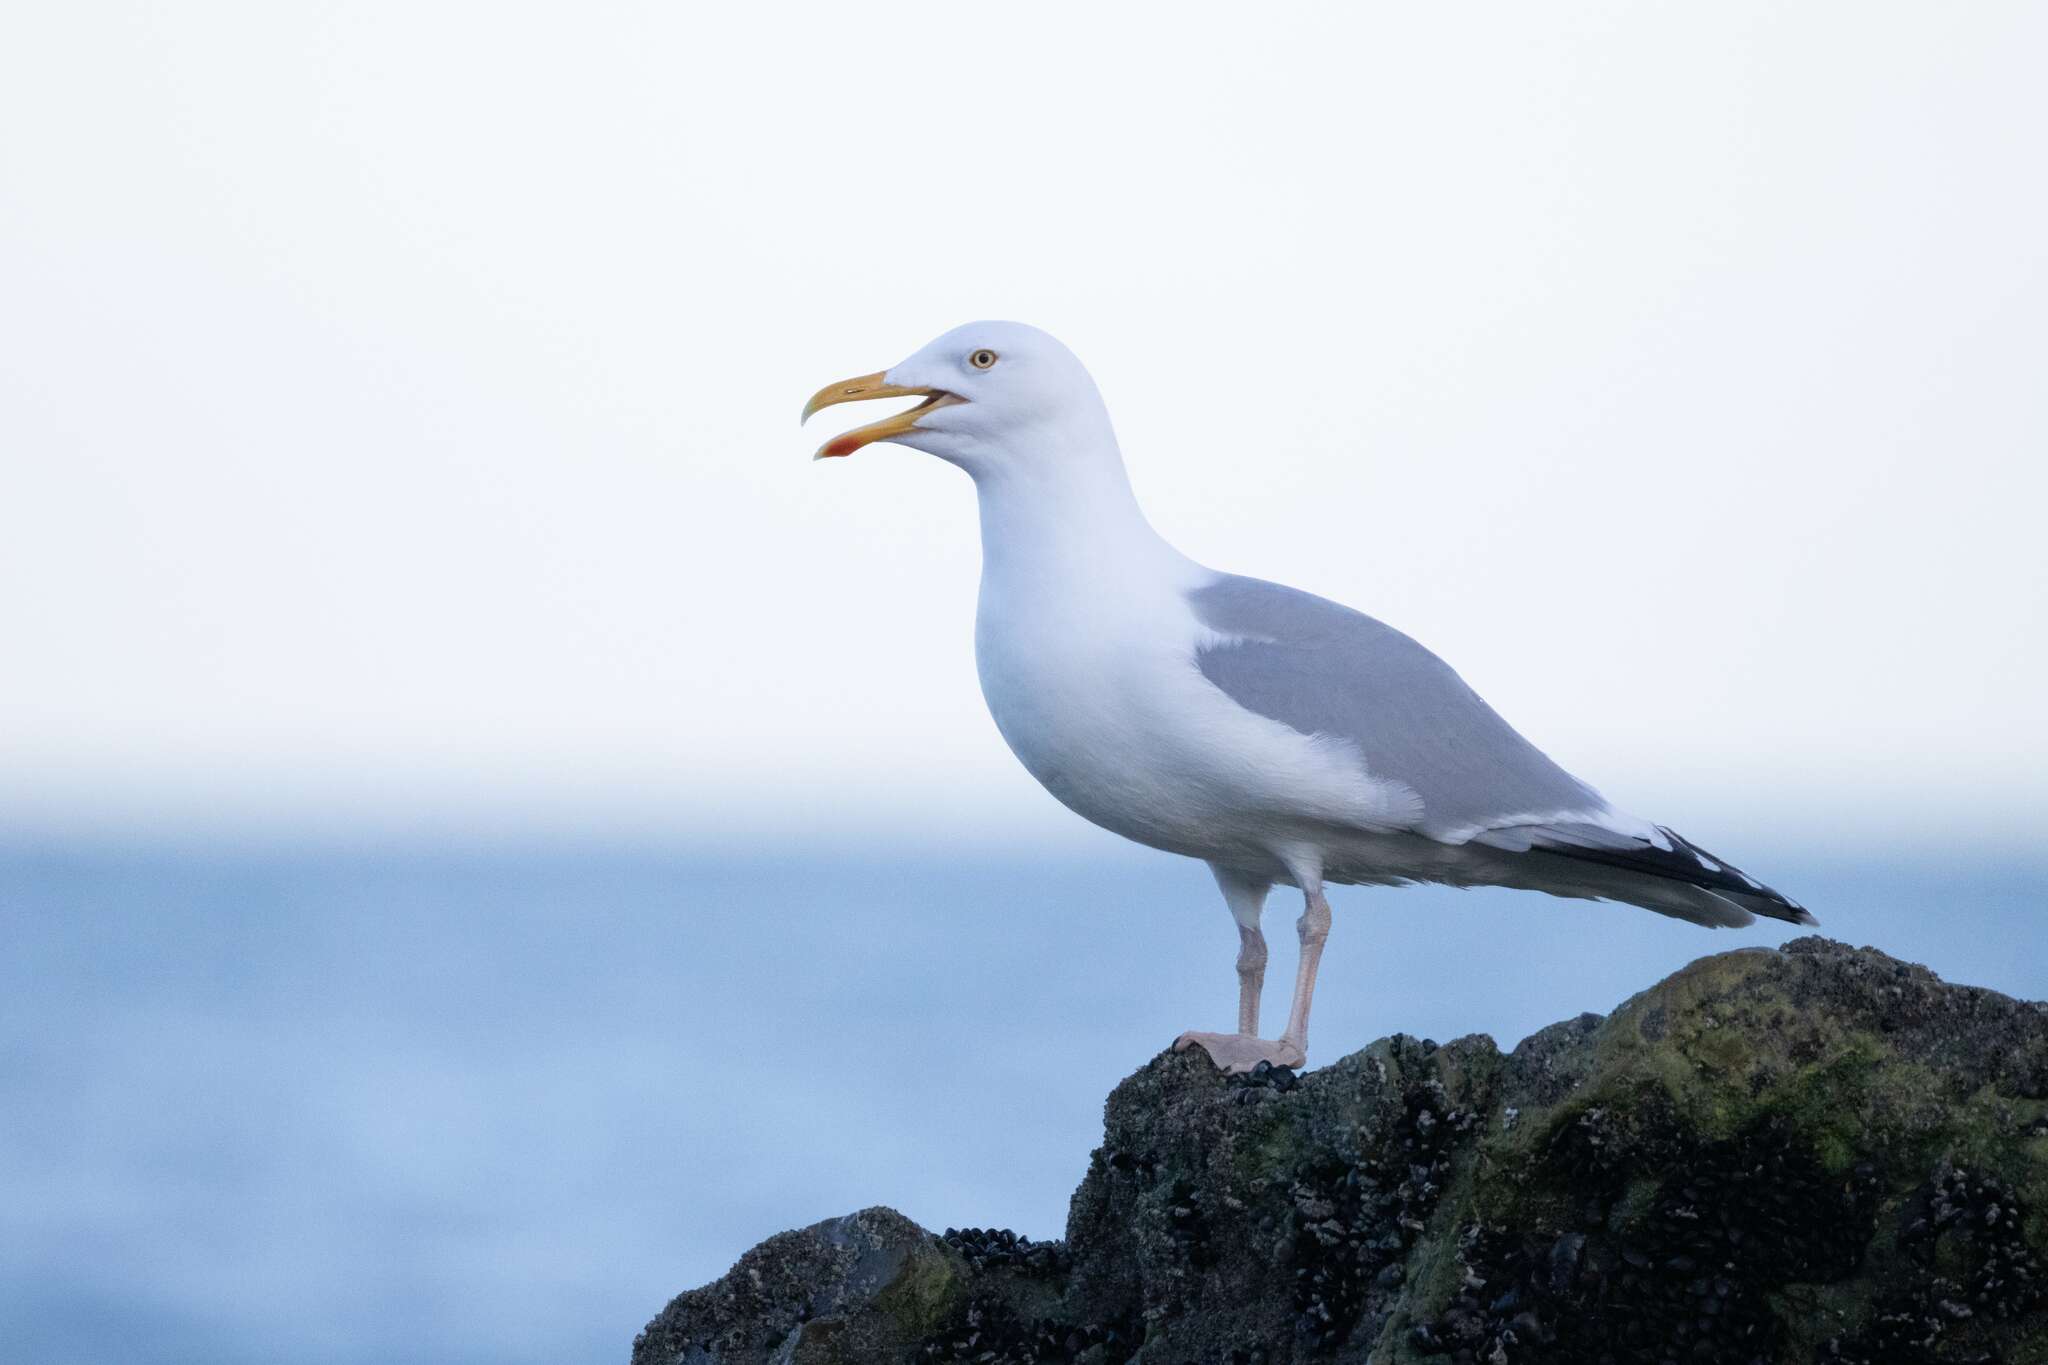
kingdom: Animalia
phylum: Chordata
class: Aves
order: Charadriiformes
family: Laridae
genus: Larus
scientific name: Larus argentatus
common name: Herring gull
